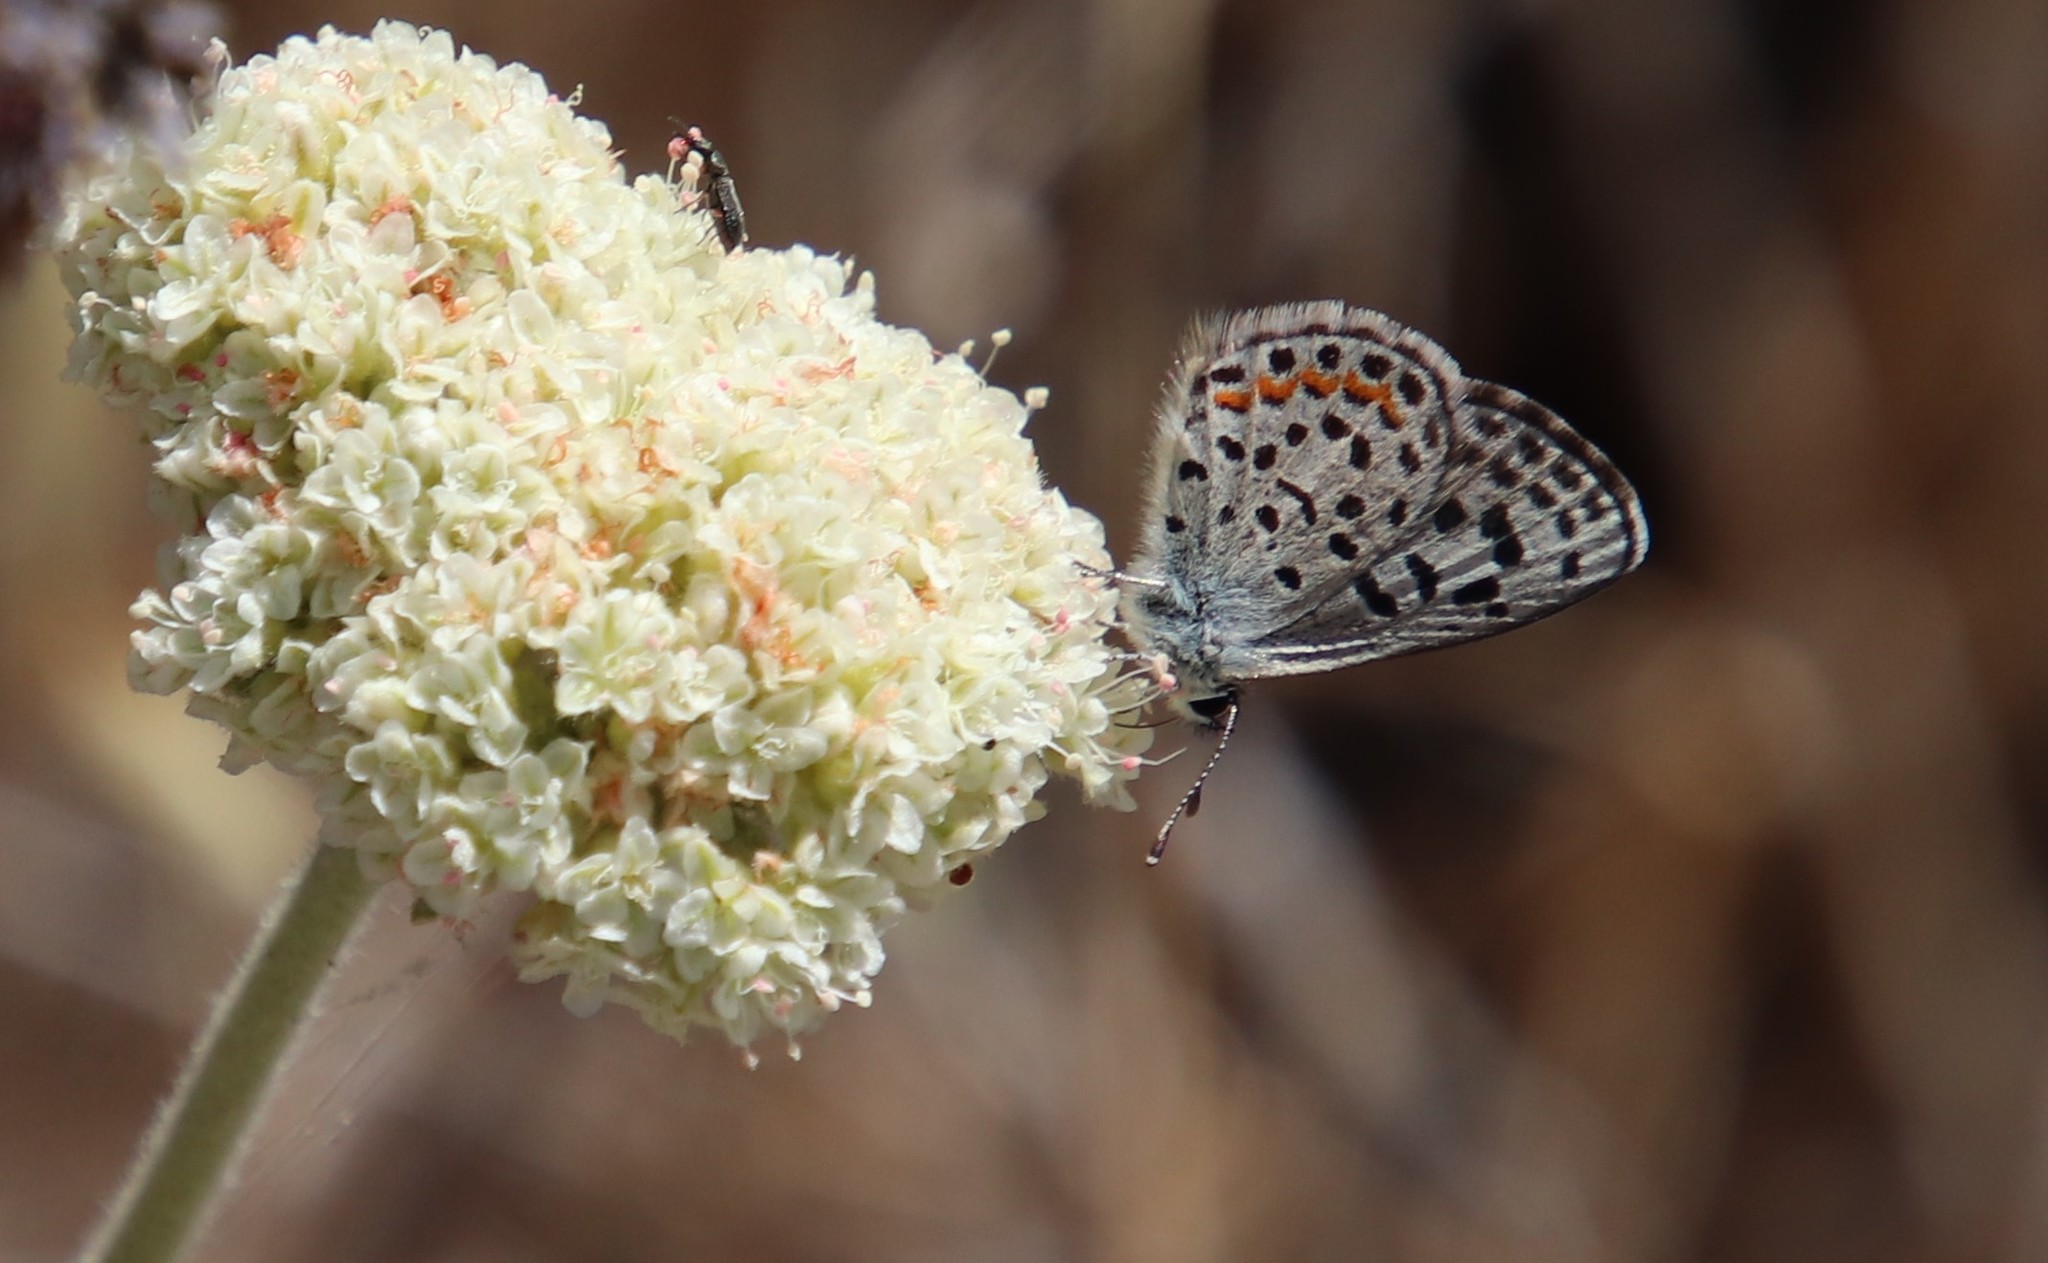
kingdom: Animalia
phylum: Arthropoda
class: Insecta
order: Lepidoptera
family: Lycaenidae
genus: Philotes
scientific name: Philotes bernardino
